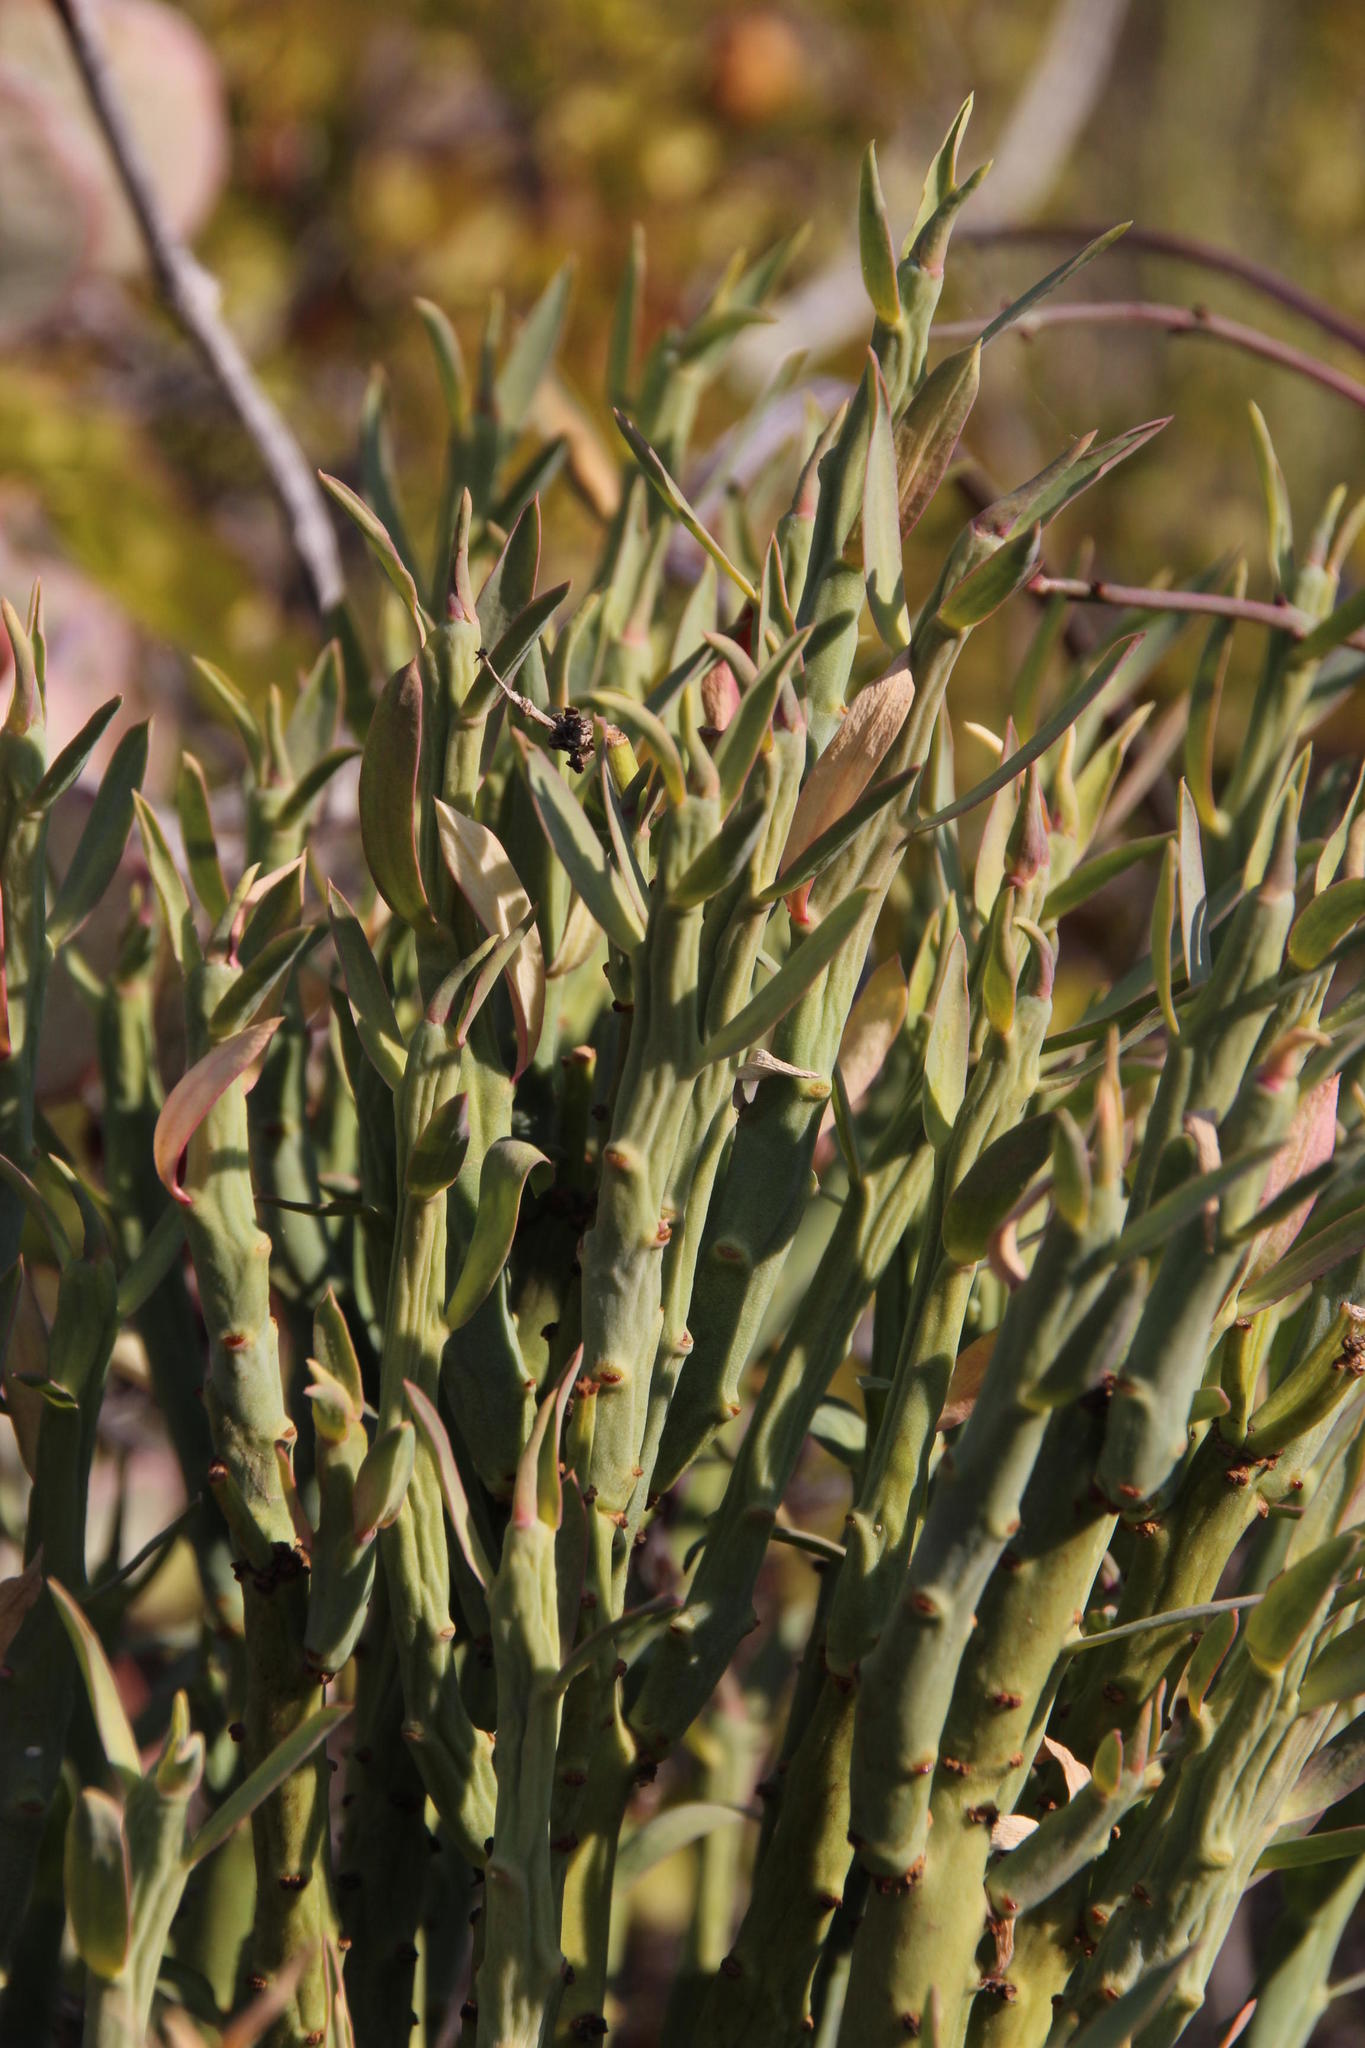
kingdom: Plantae
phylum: Tracheophyta
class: Magnoliopsida
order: Malpighiales
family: Euphorbiaceae
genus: Euphorbia
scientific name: Euphorbia mauritanica
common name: Jackal's-food
